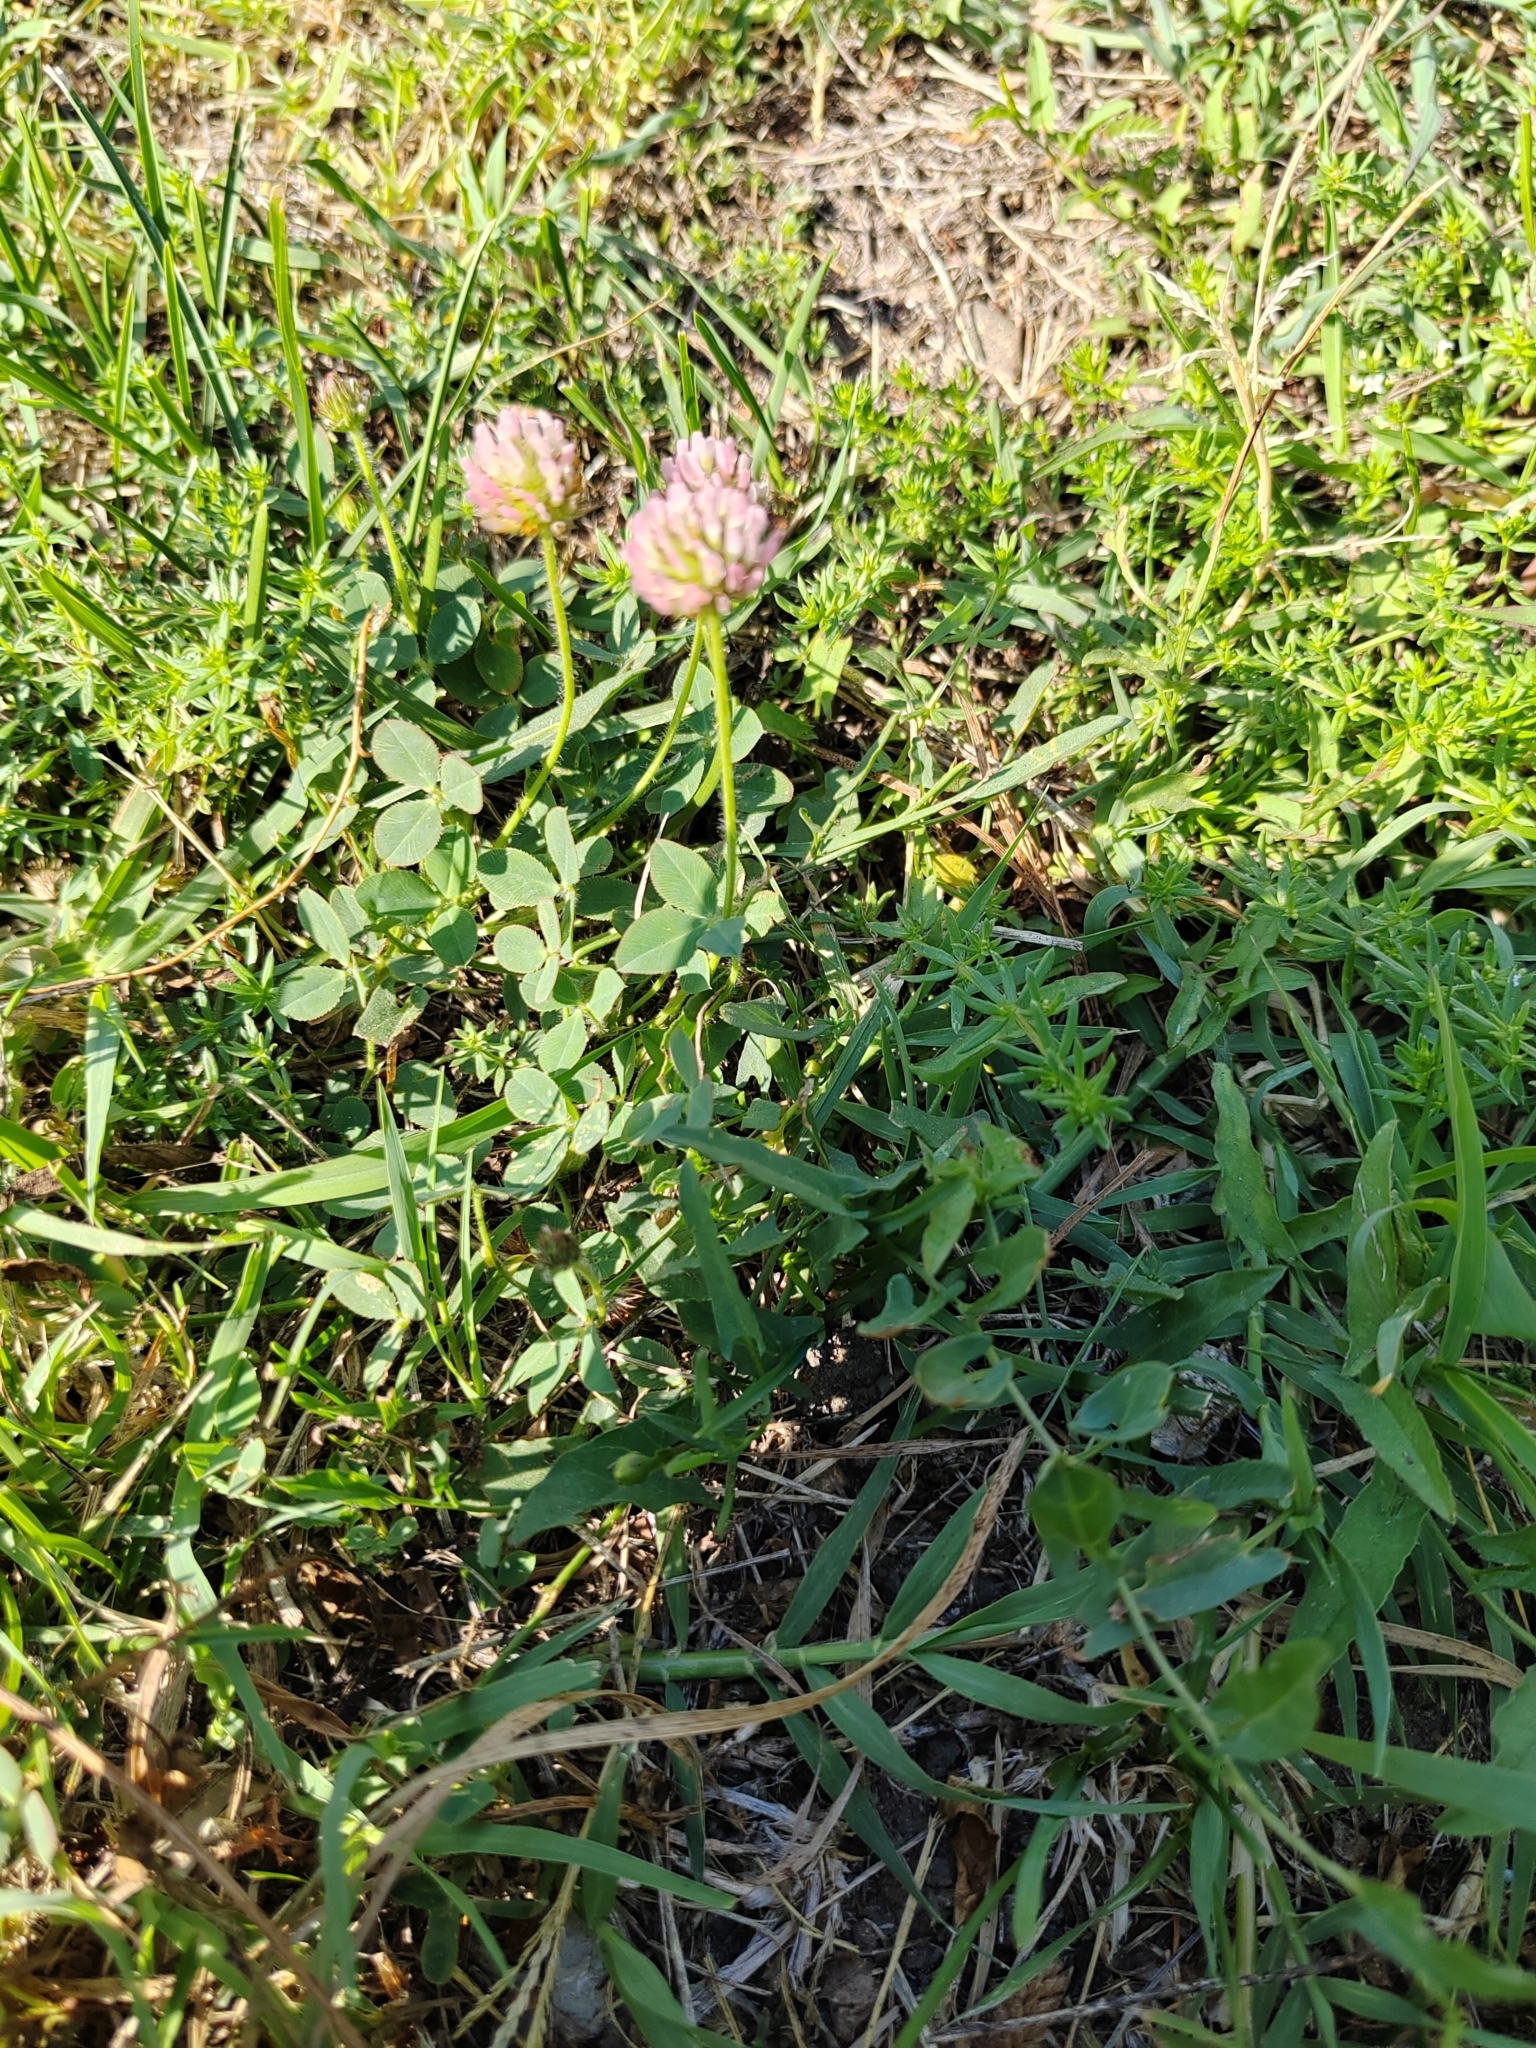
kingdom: Plantae
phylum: Tracheophyta
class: Magnoliopsida
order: Fabales
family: Fabaceae
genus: Trifolium
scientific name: Trifolium fragiferum
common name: Strawberry clover
